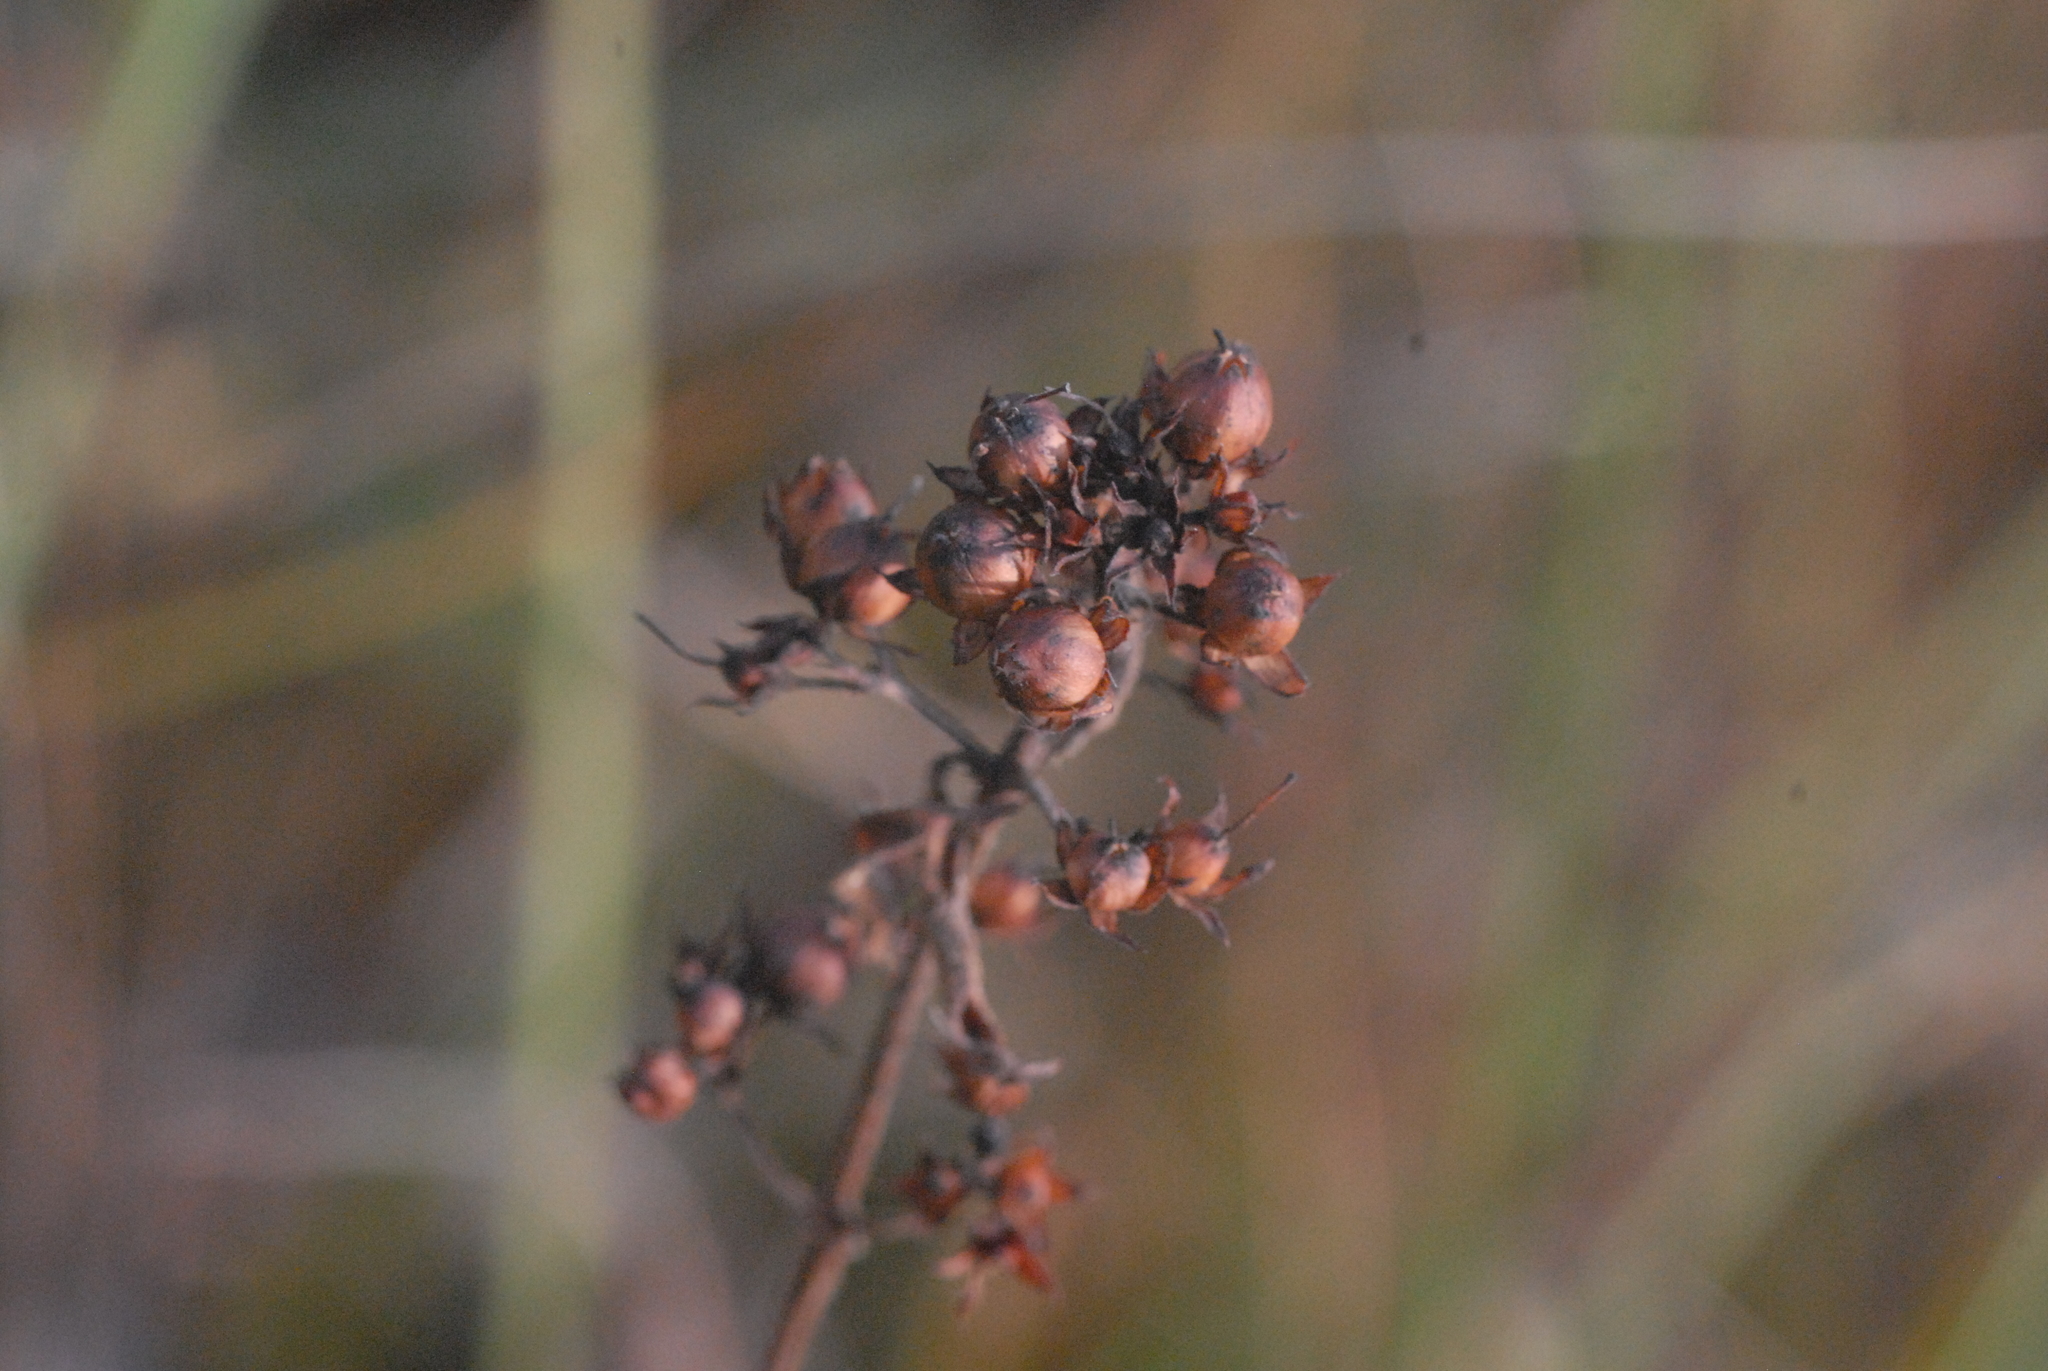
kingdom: Plantae
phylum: Tracheophyta
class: Magnoliopsida
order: Ericales
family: Primulaceae
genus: Lysimachia
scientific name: Lysimachia vulgaris
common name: Yellow loosestrife
